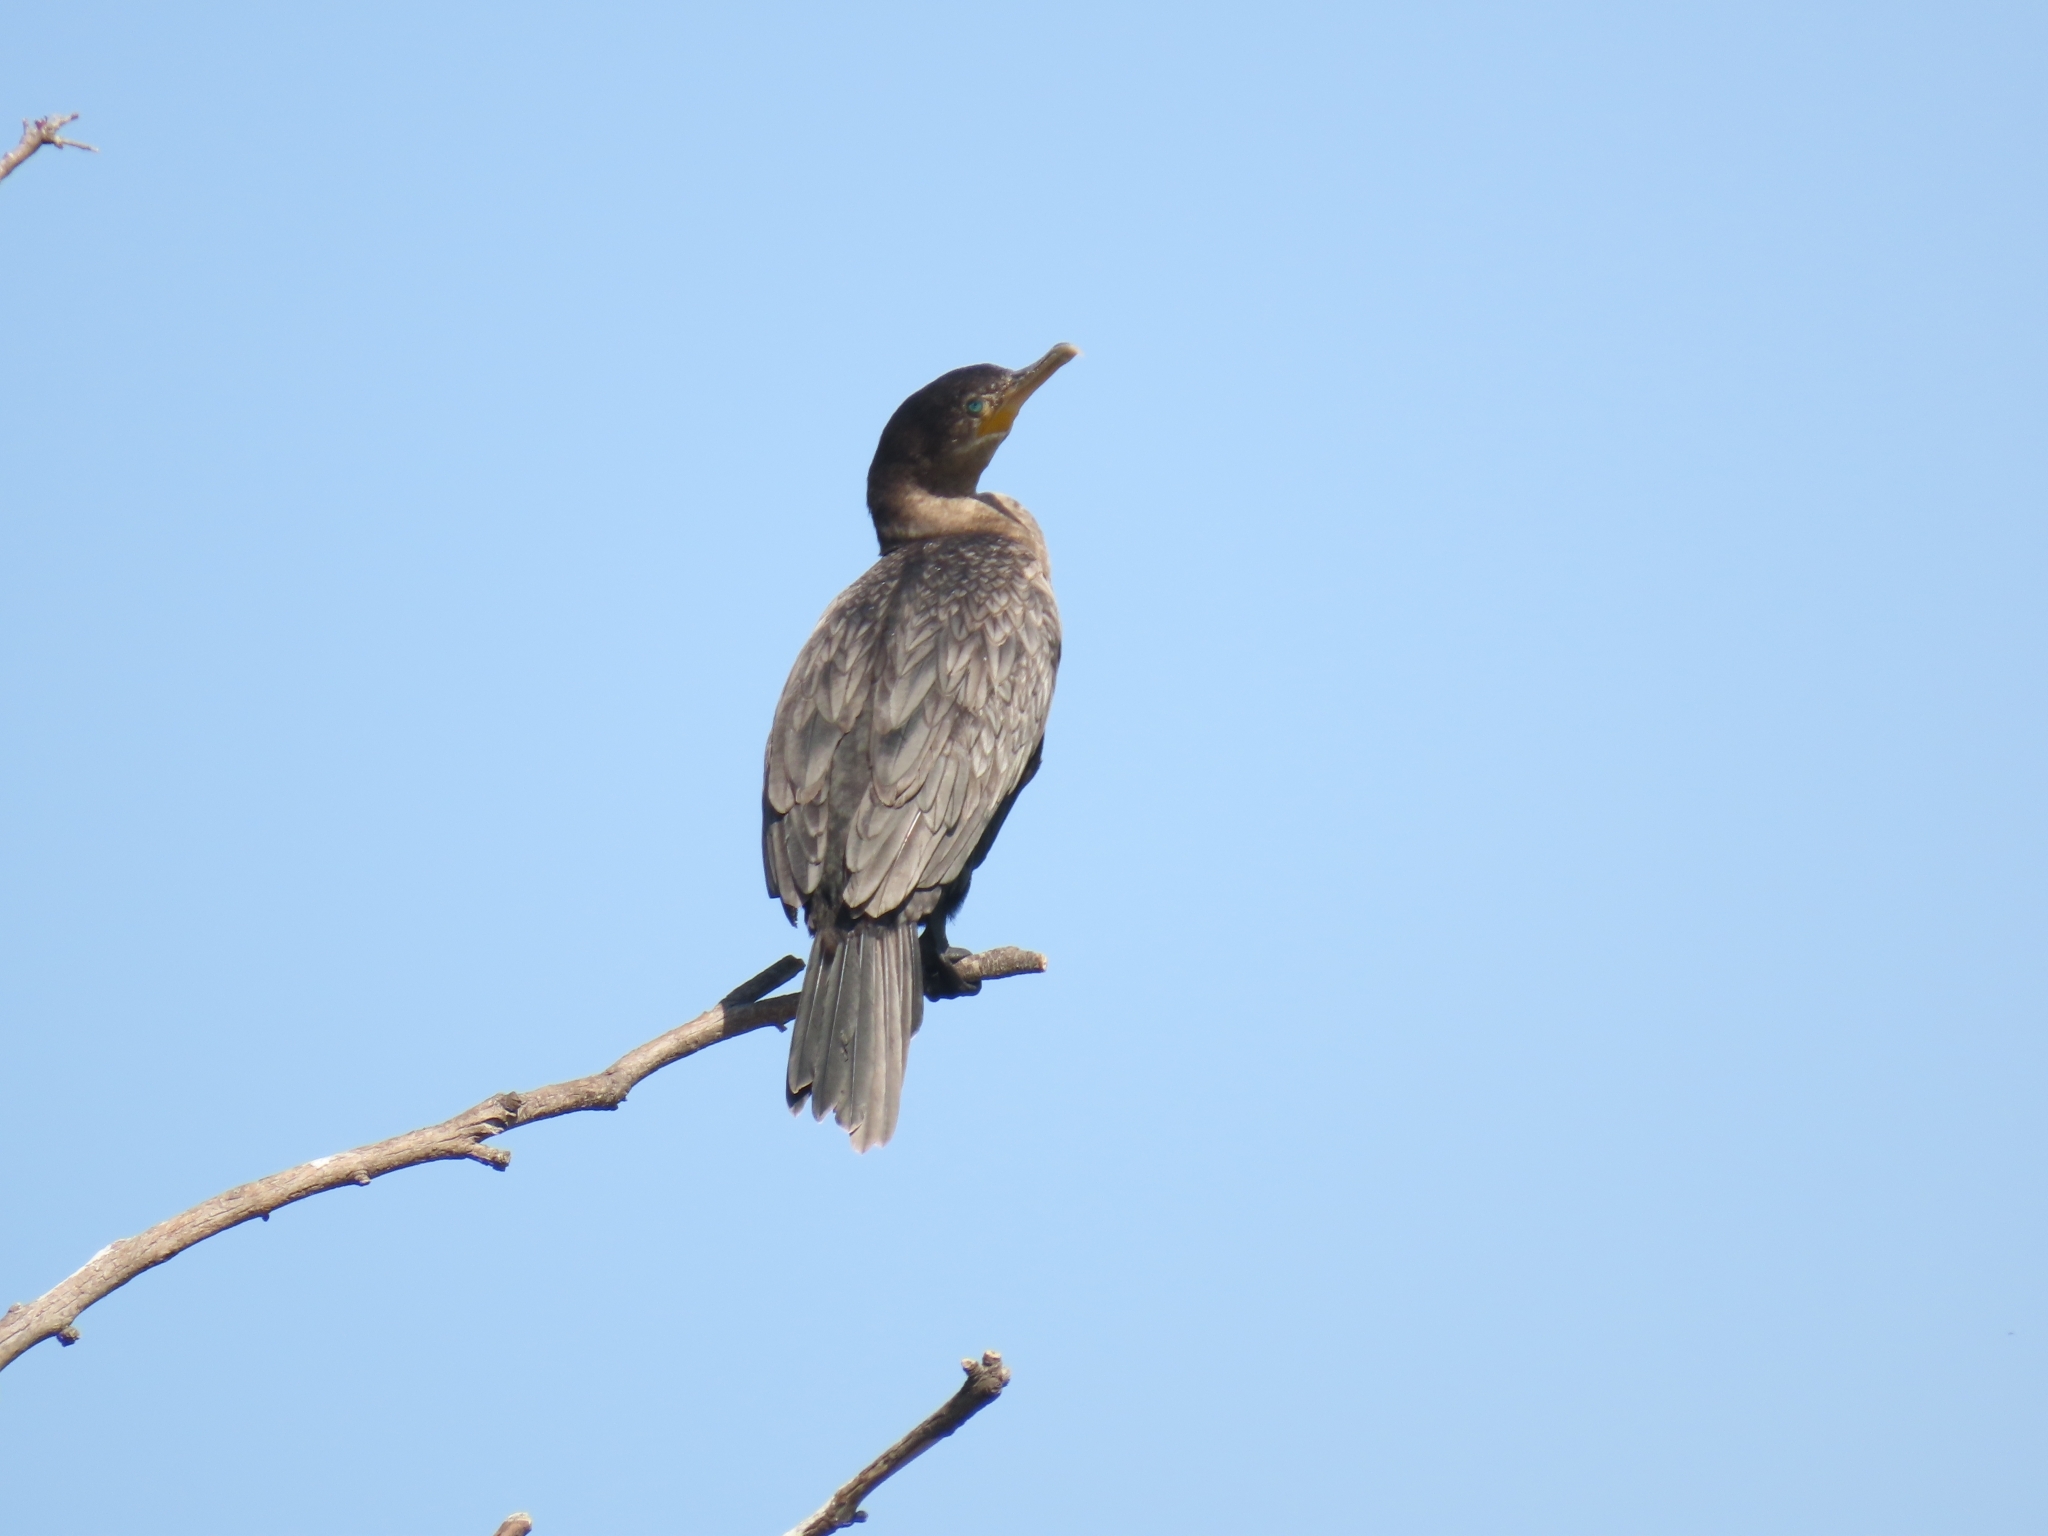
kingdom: Animalia
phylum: Chordata
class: Aves
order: Suliformes
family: Phalacrocoracidae
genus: Phalacrocorax
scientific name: Phalacrocorax brasilianus
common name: Neotropic cormorant
